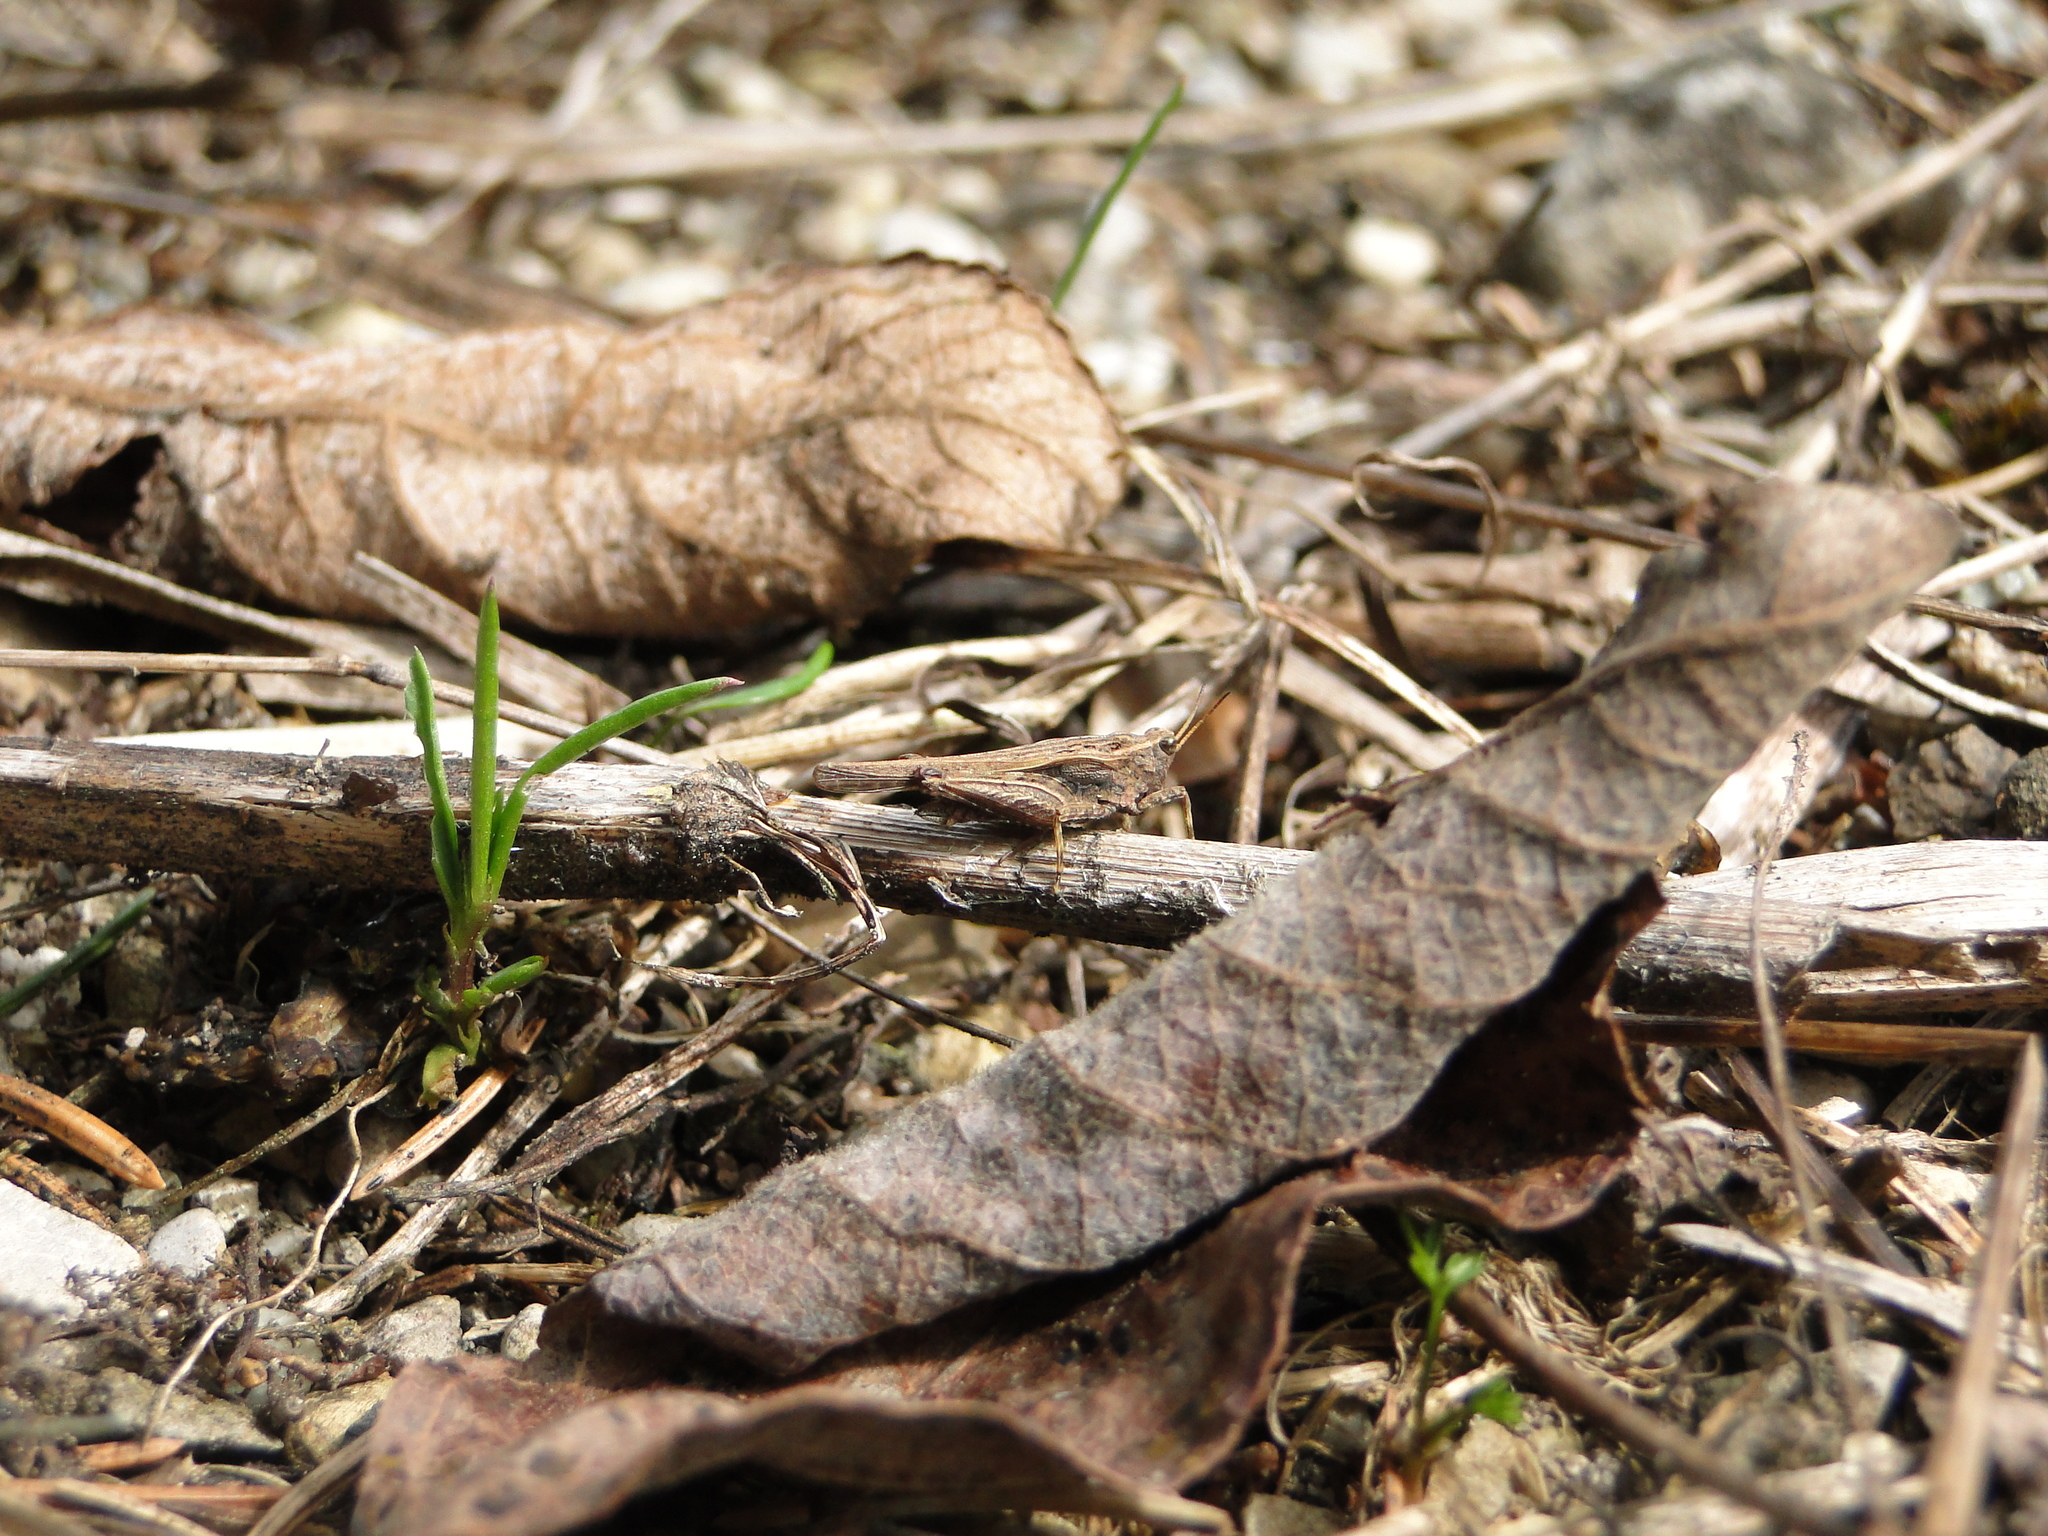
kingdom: Animalia
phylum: Arthropoda
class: Insecta
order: Orthoptera
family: Tetrigidae
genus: Tetrix
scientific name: Tetrix subulata
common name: Slender ground-hopper
